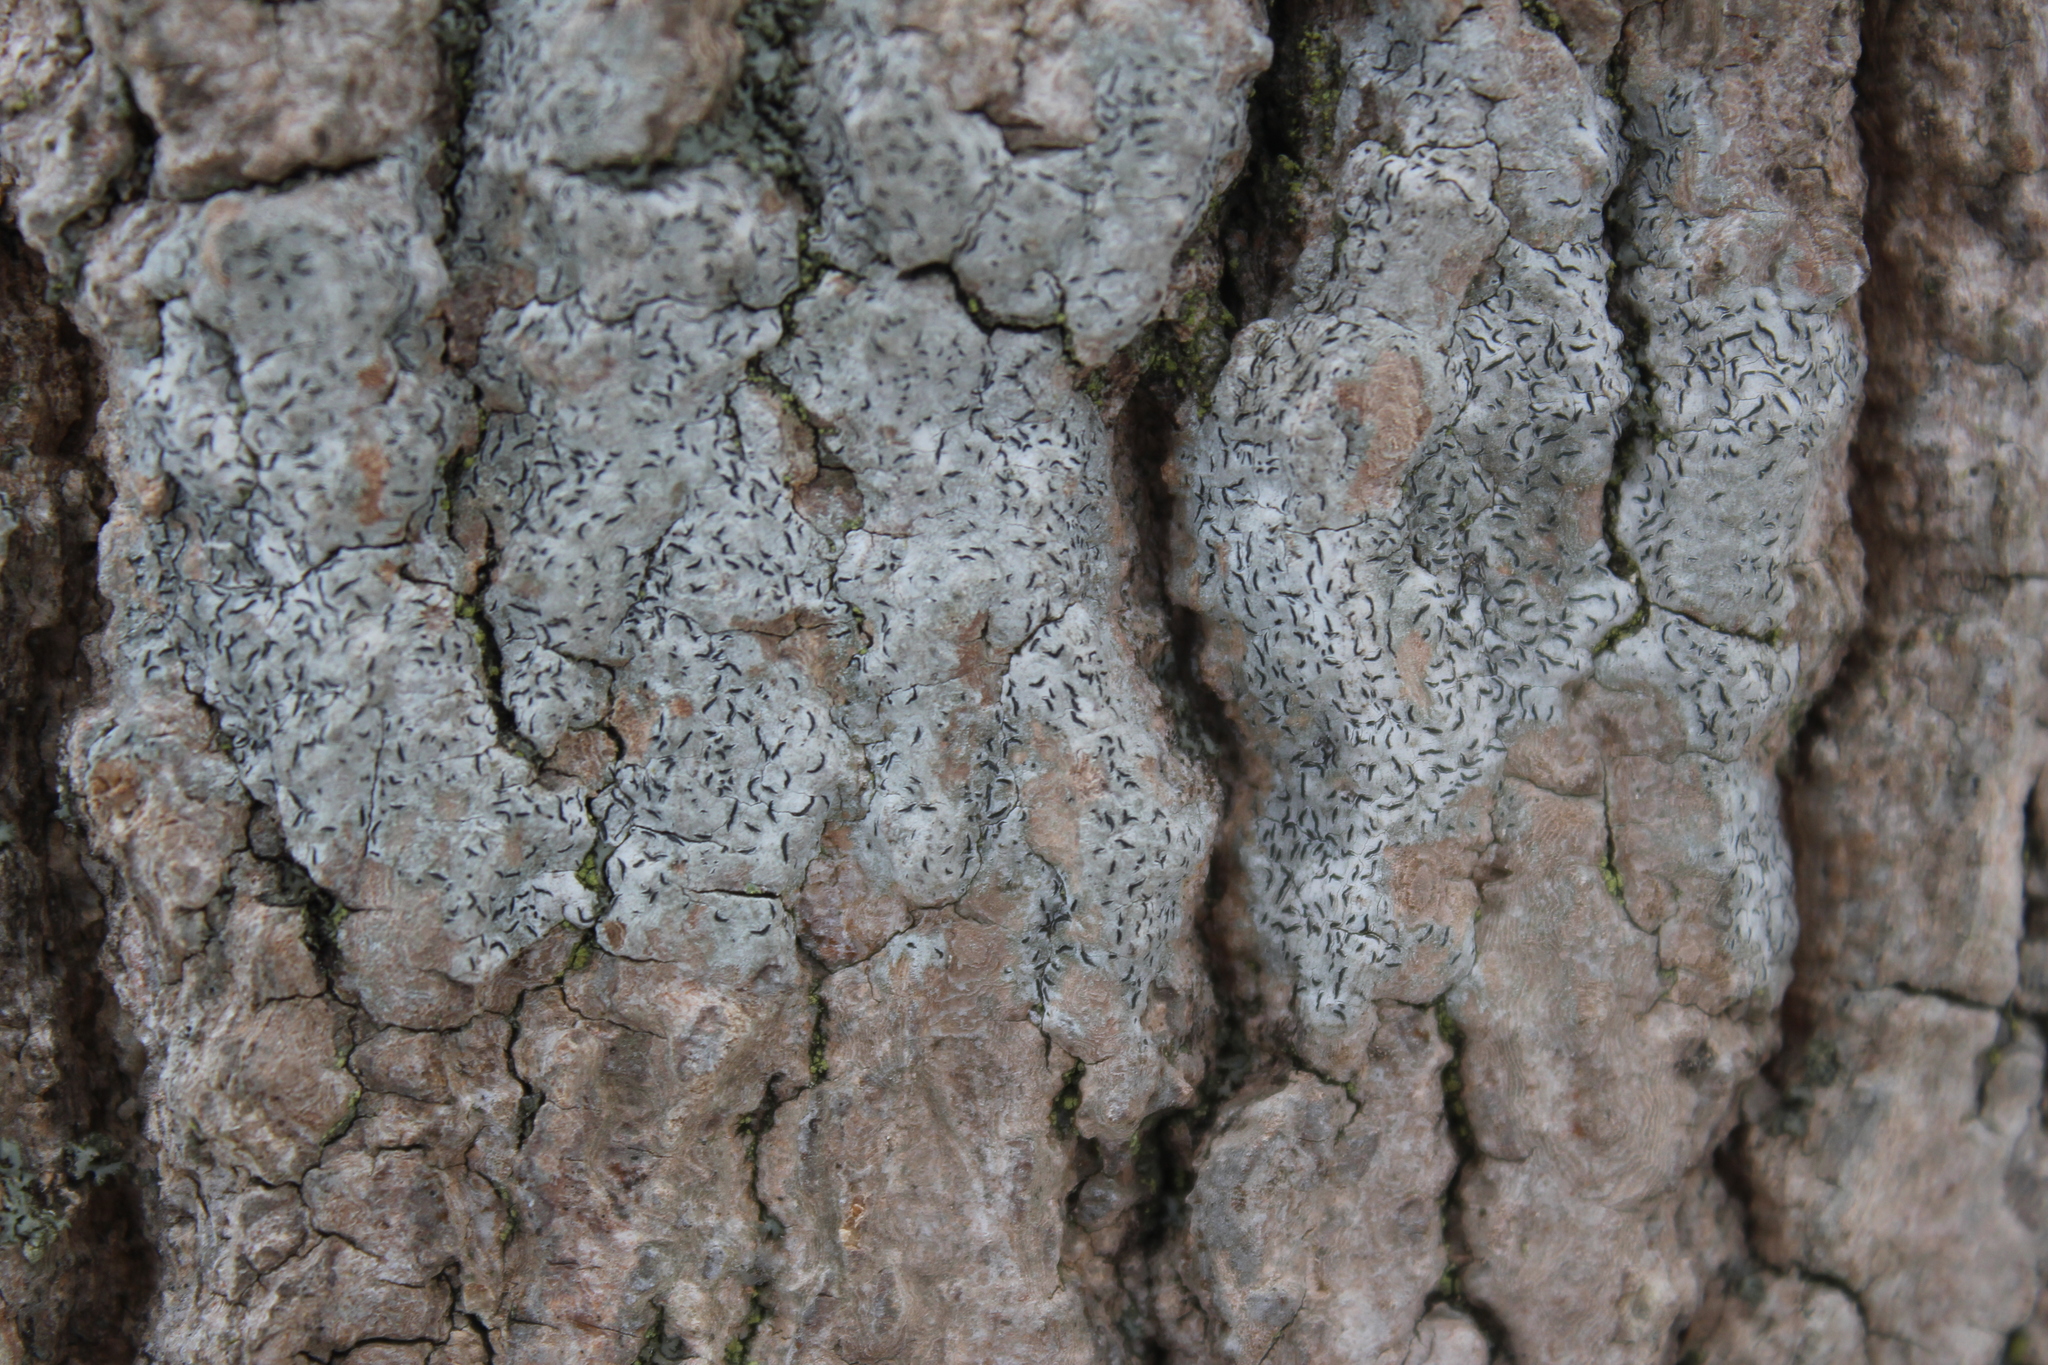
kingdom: Fungi
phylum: Ascomycota
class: Lecanoromycetes
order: Ostropales
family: Graphidaceae
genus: Graphis
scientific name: Graphis scripta
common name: Script lichen
